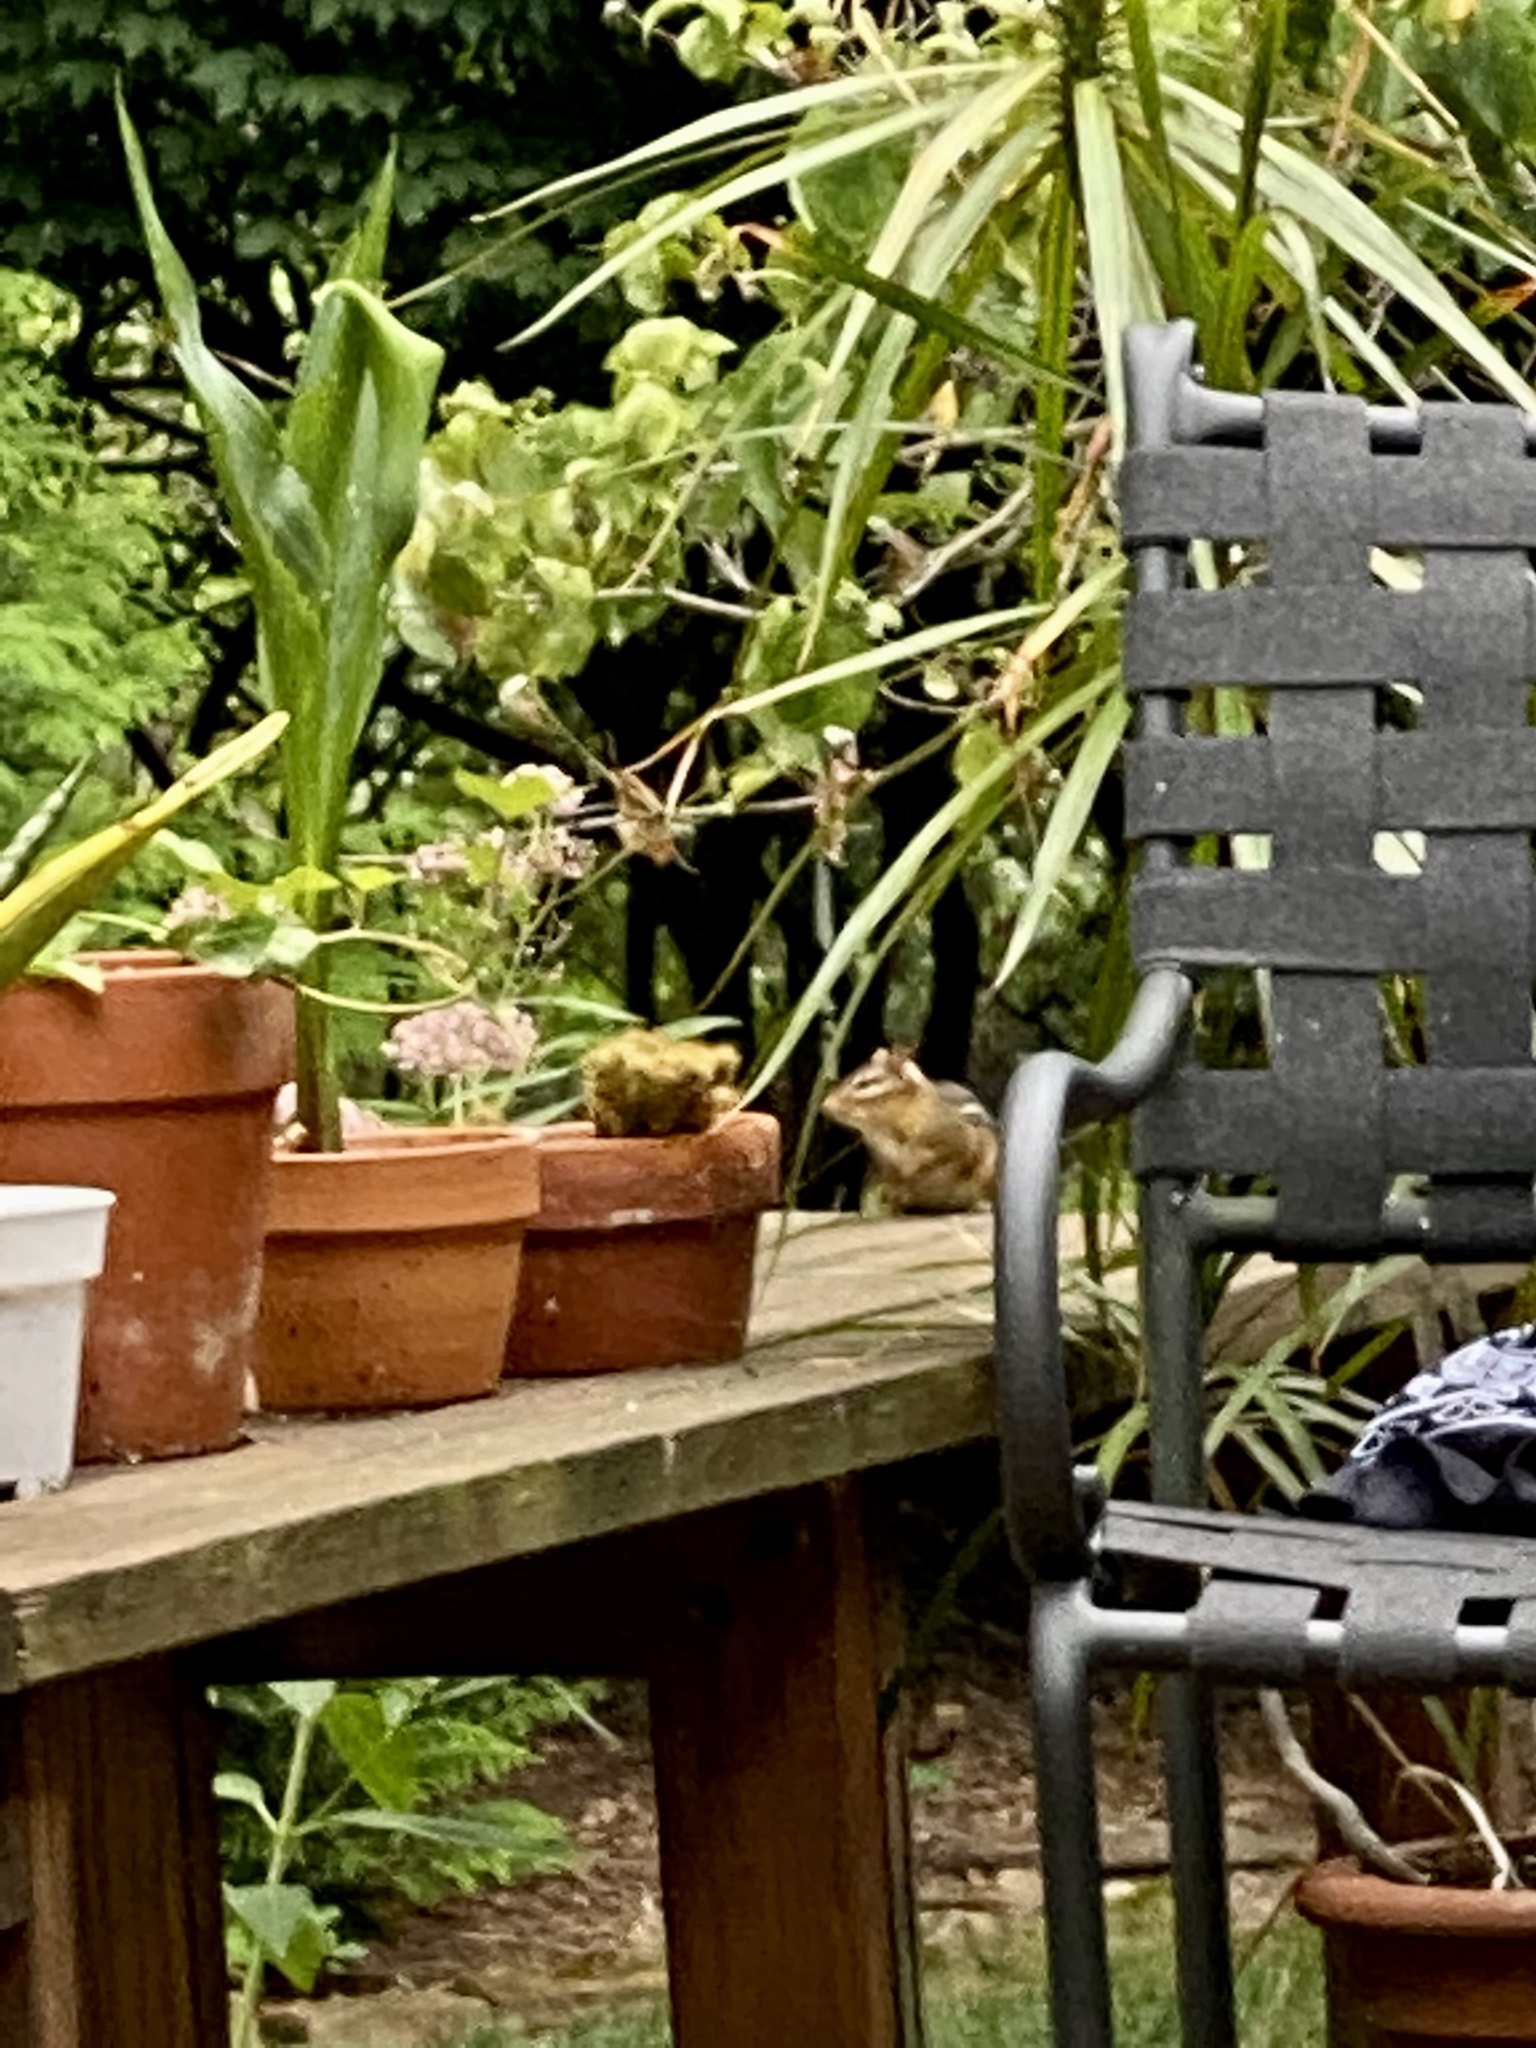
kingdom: Animalia
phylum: Chordata
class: Mammalia
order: Rodentia
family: Sciuridae
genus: Tamias
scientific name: Tamias striatus
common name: Eastern chipmunk
